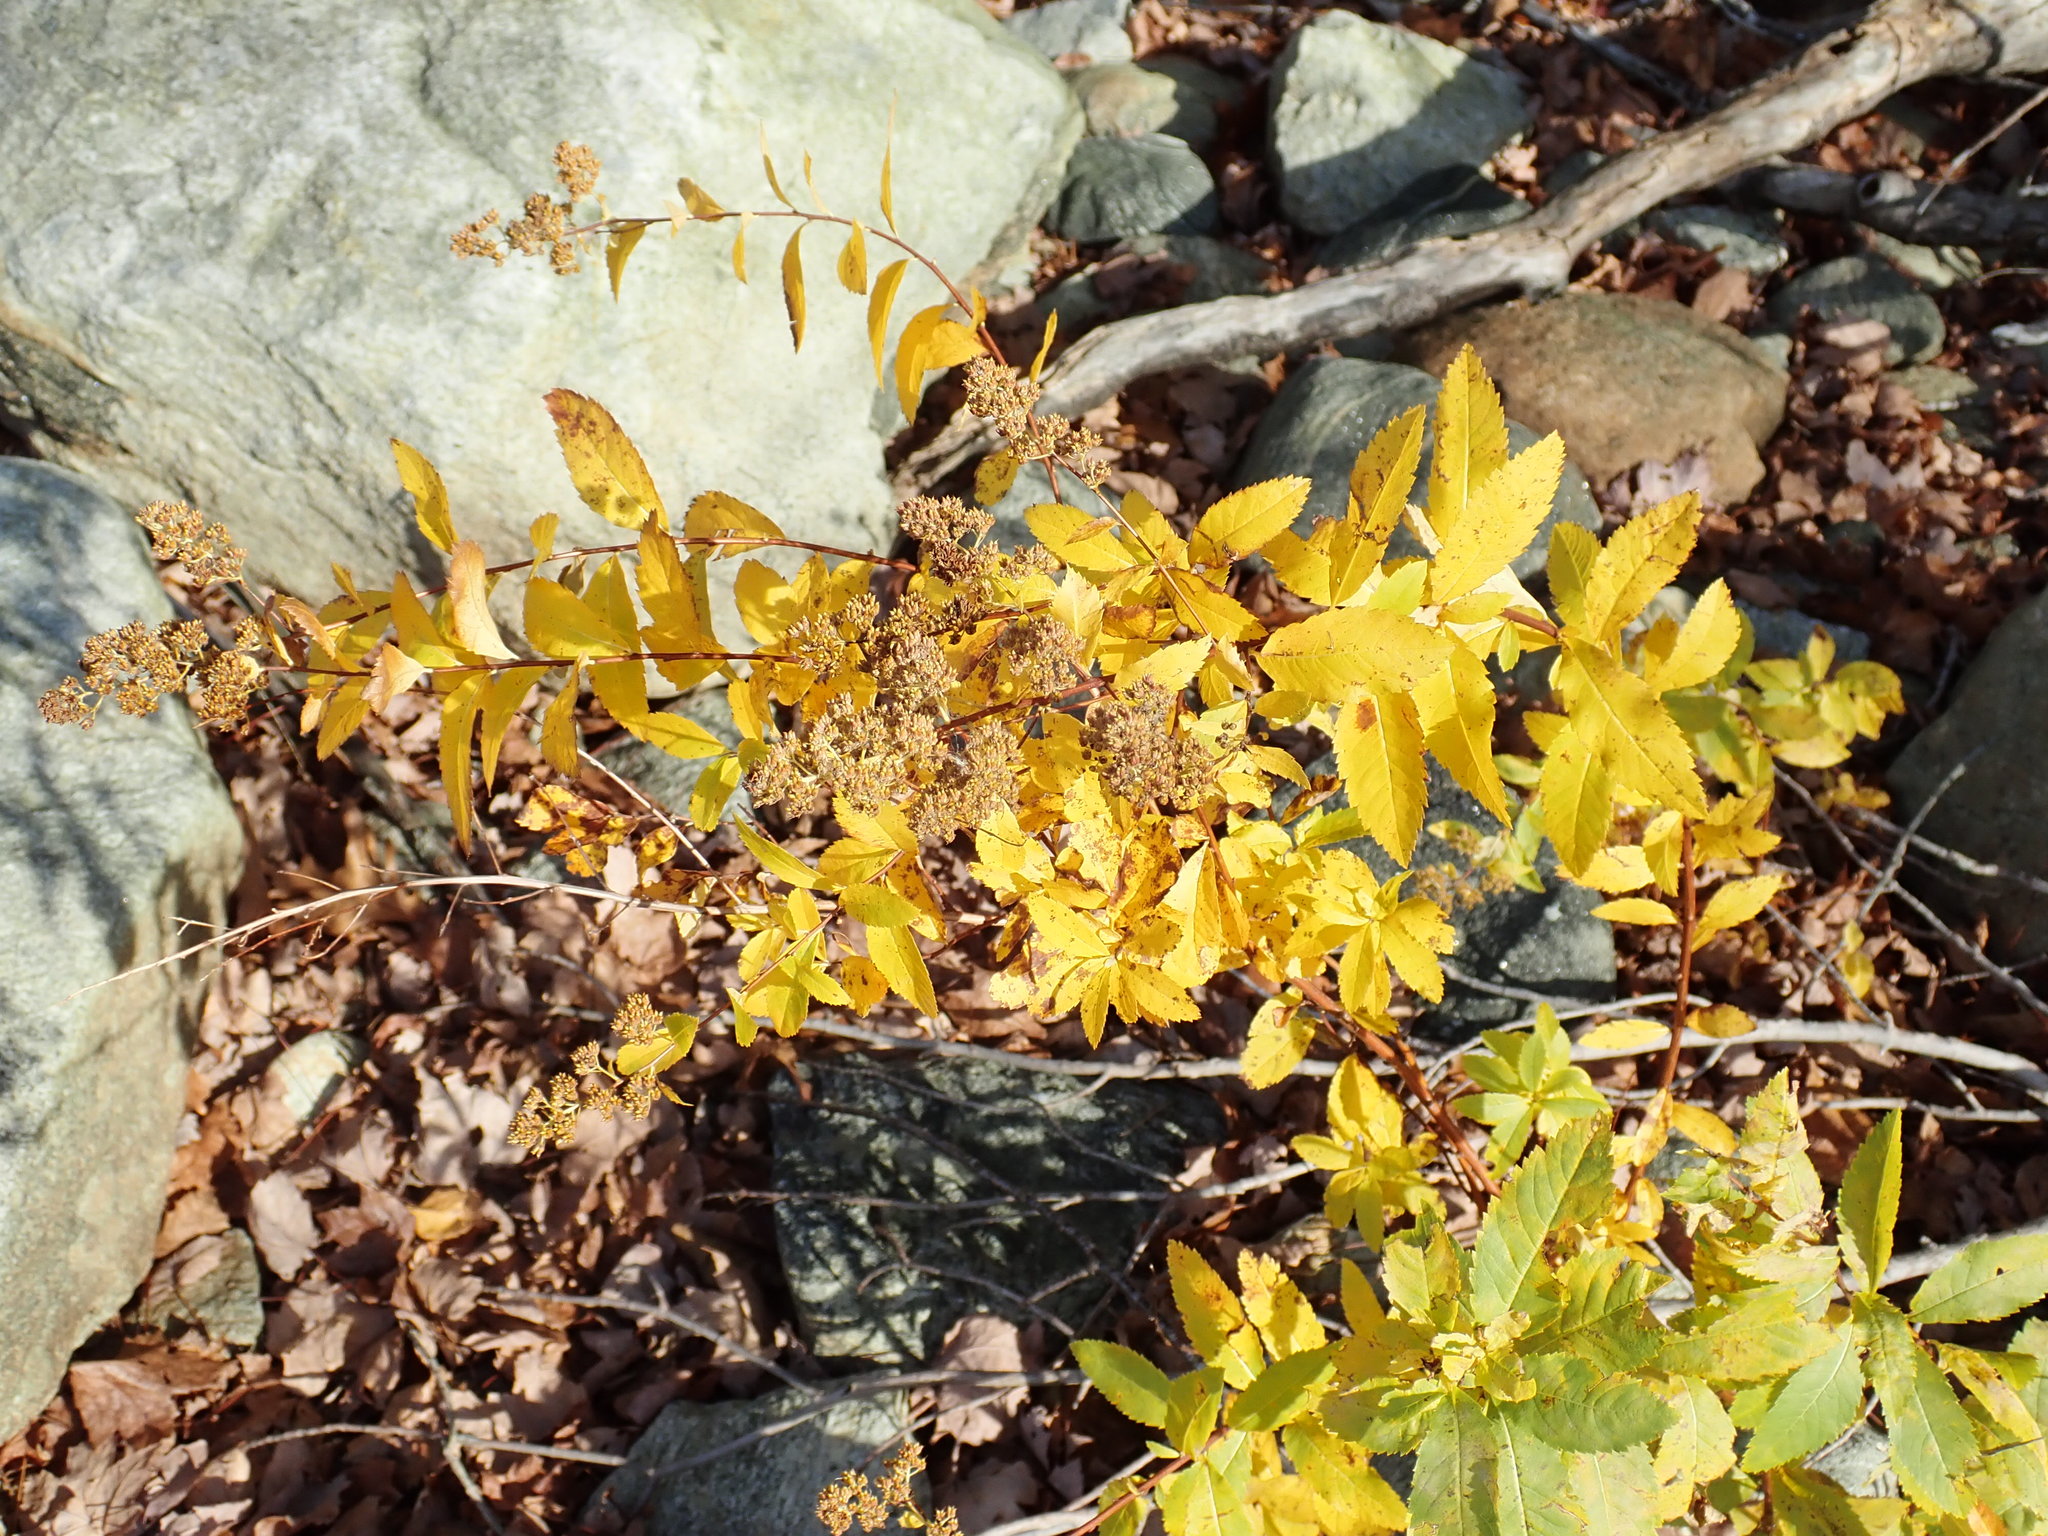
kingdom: Plantae
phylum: Tracheophyta
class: Magnoliopsida
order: Rosales
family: Rosaceae
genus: Spiraea
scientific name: Spiraea alba
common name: Pale bridewort
